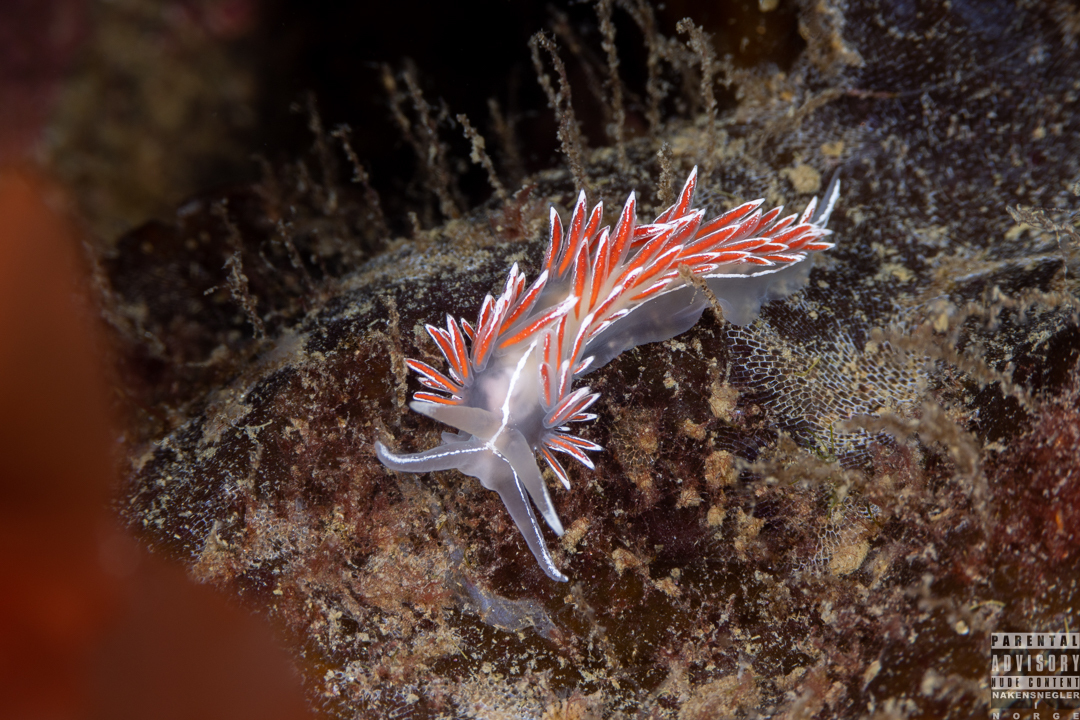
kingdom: Animalia
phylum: Mollusca
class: Gastropoda
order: Nudibranchia
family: Coryphellidae
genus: Coryphella
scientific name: Coryphella lineata
